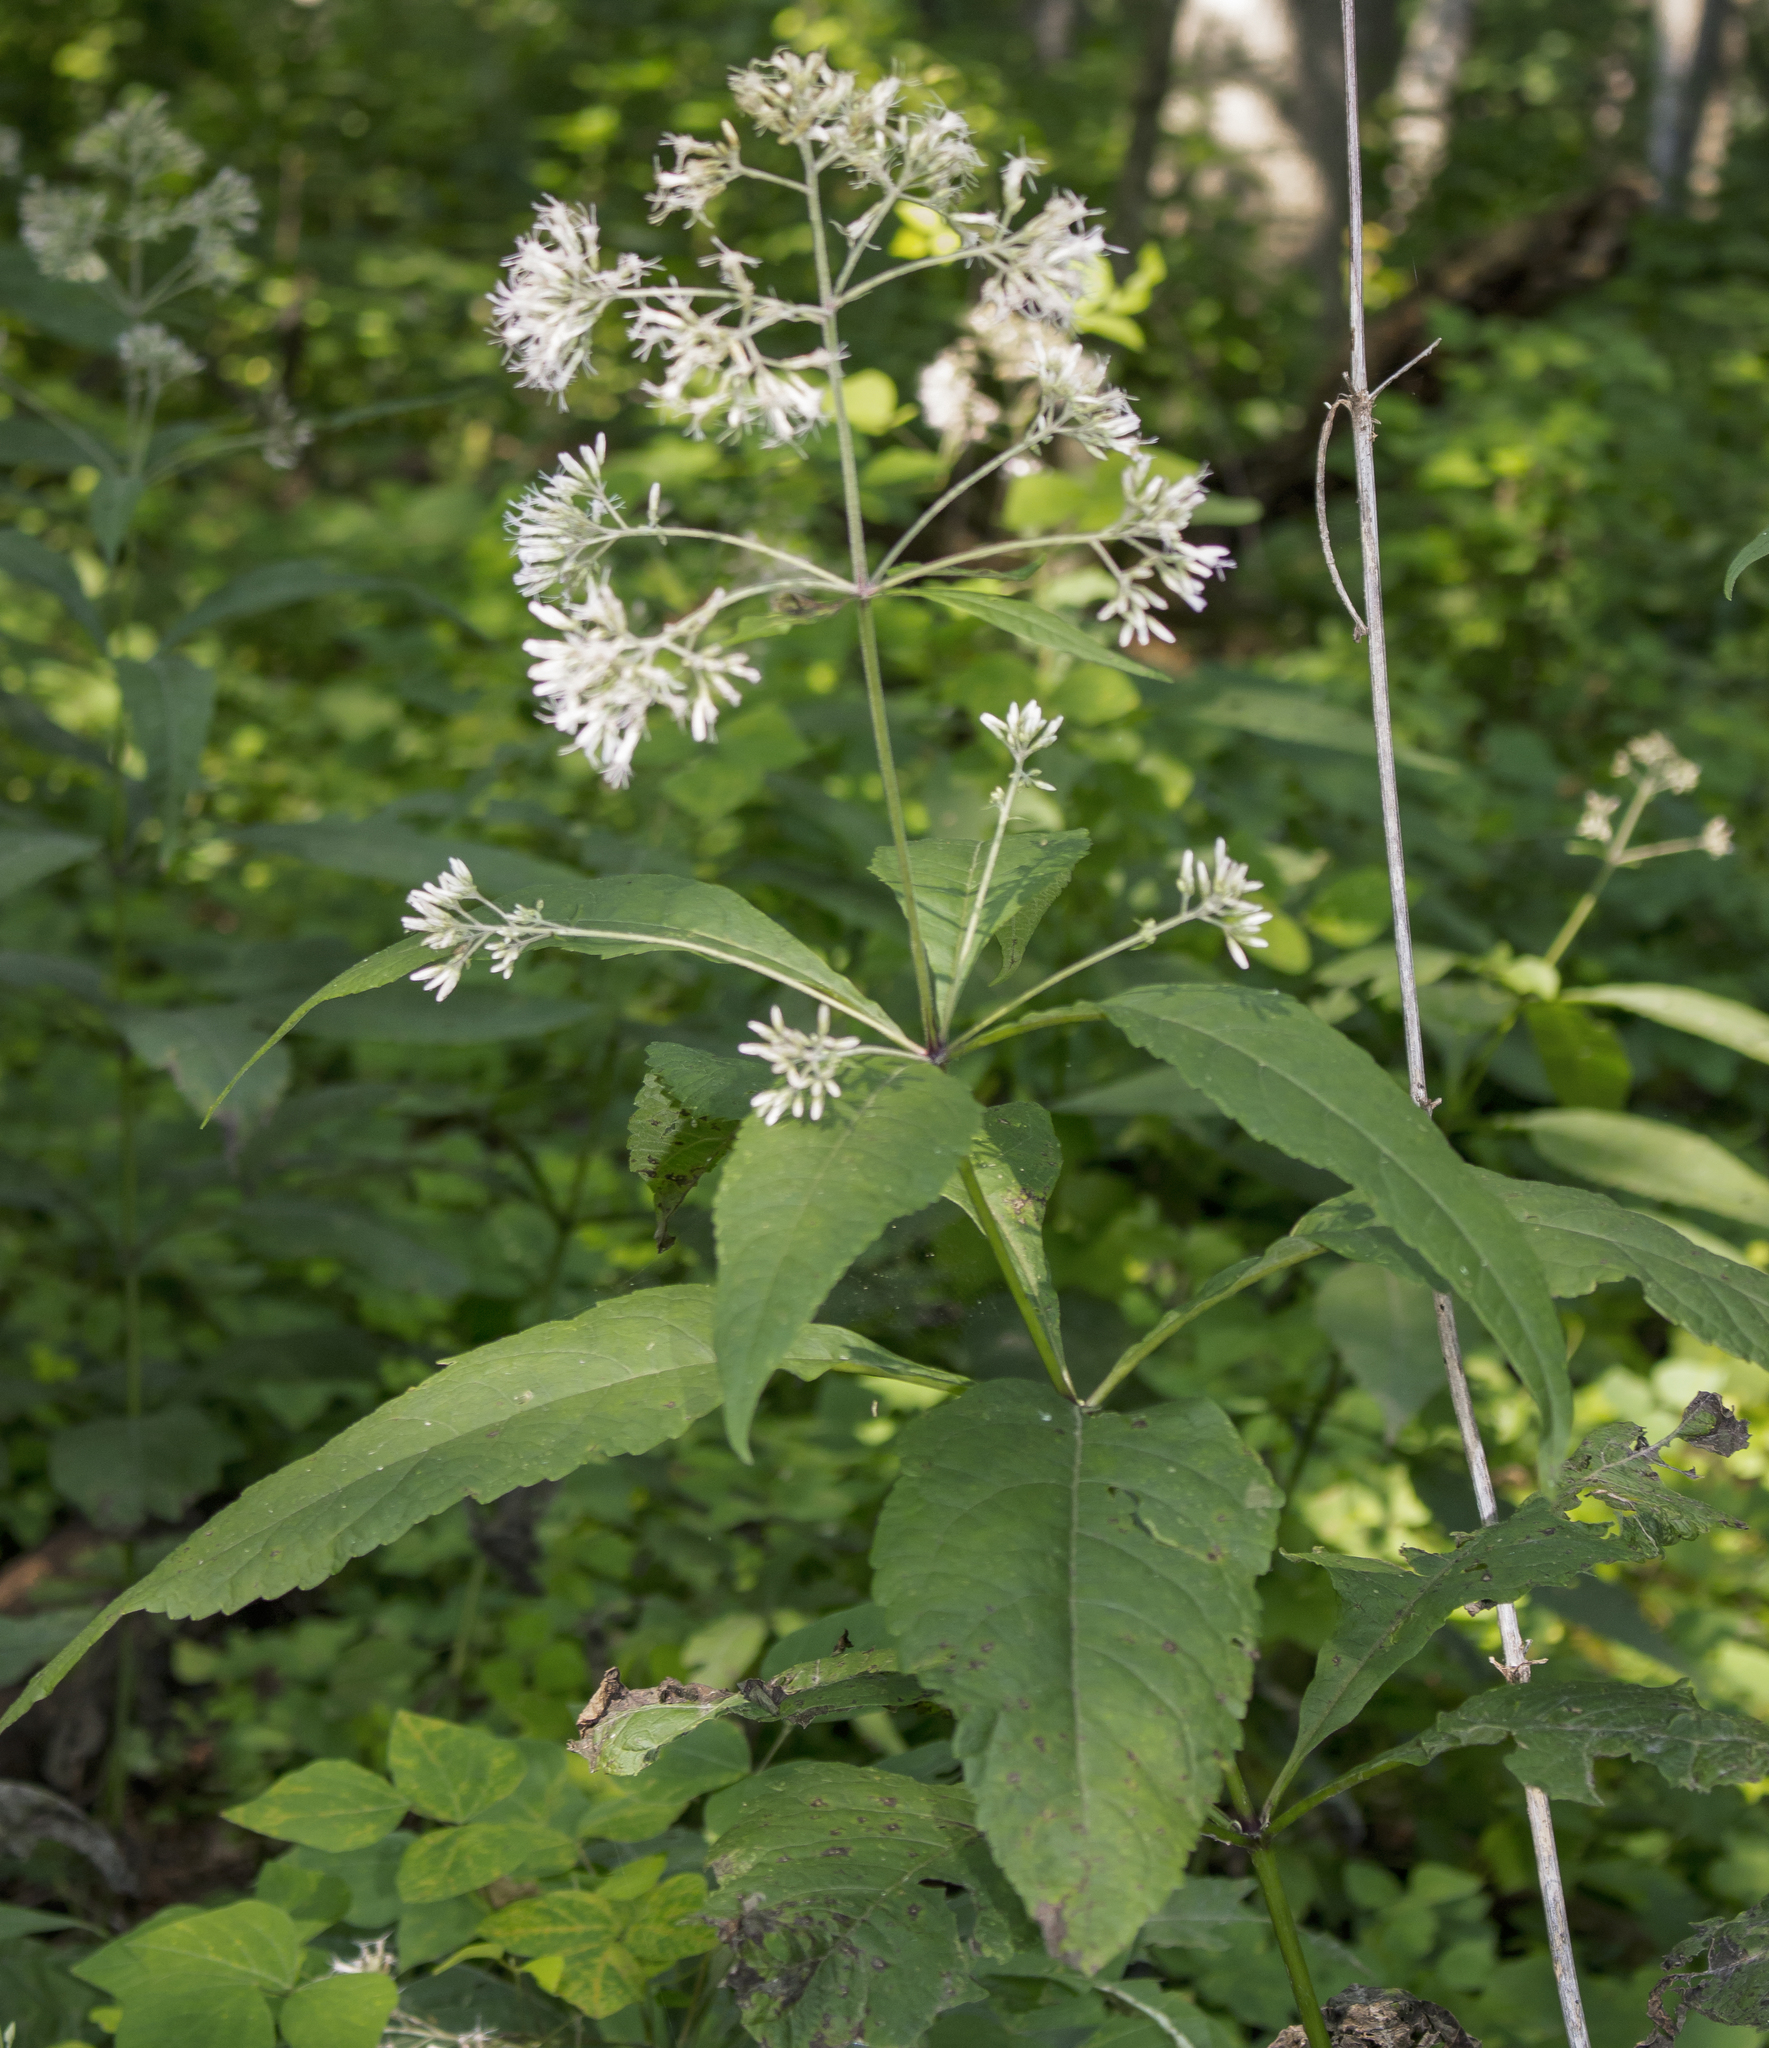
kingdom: Plantae
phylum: Tracheophyta
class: Magnoliopsida
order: Asterales
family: Asteraceae
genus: Eutrochium
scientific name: Eutrochium purpureum
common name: Gravelroot
